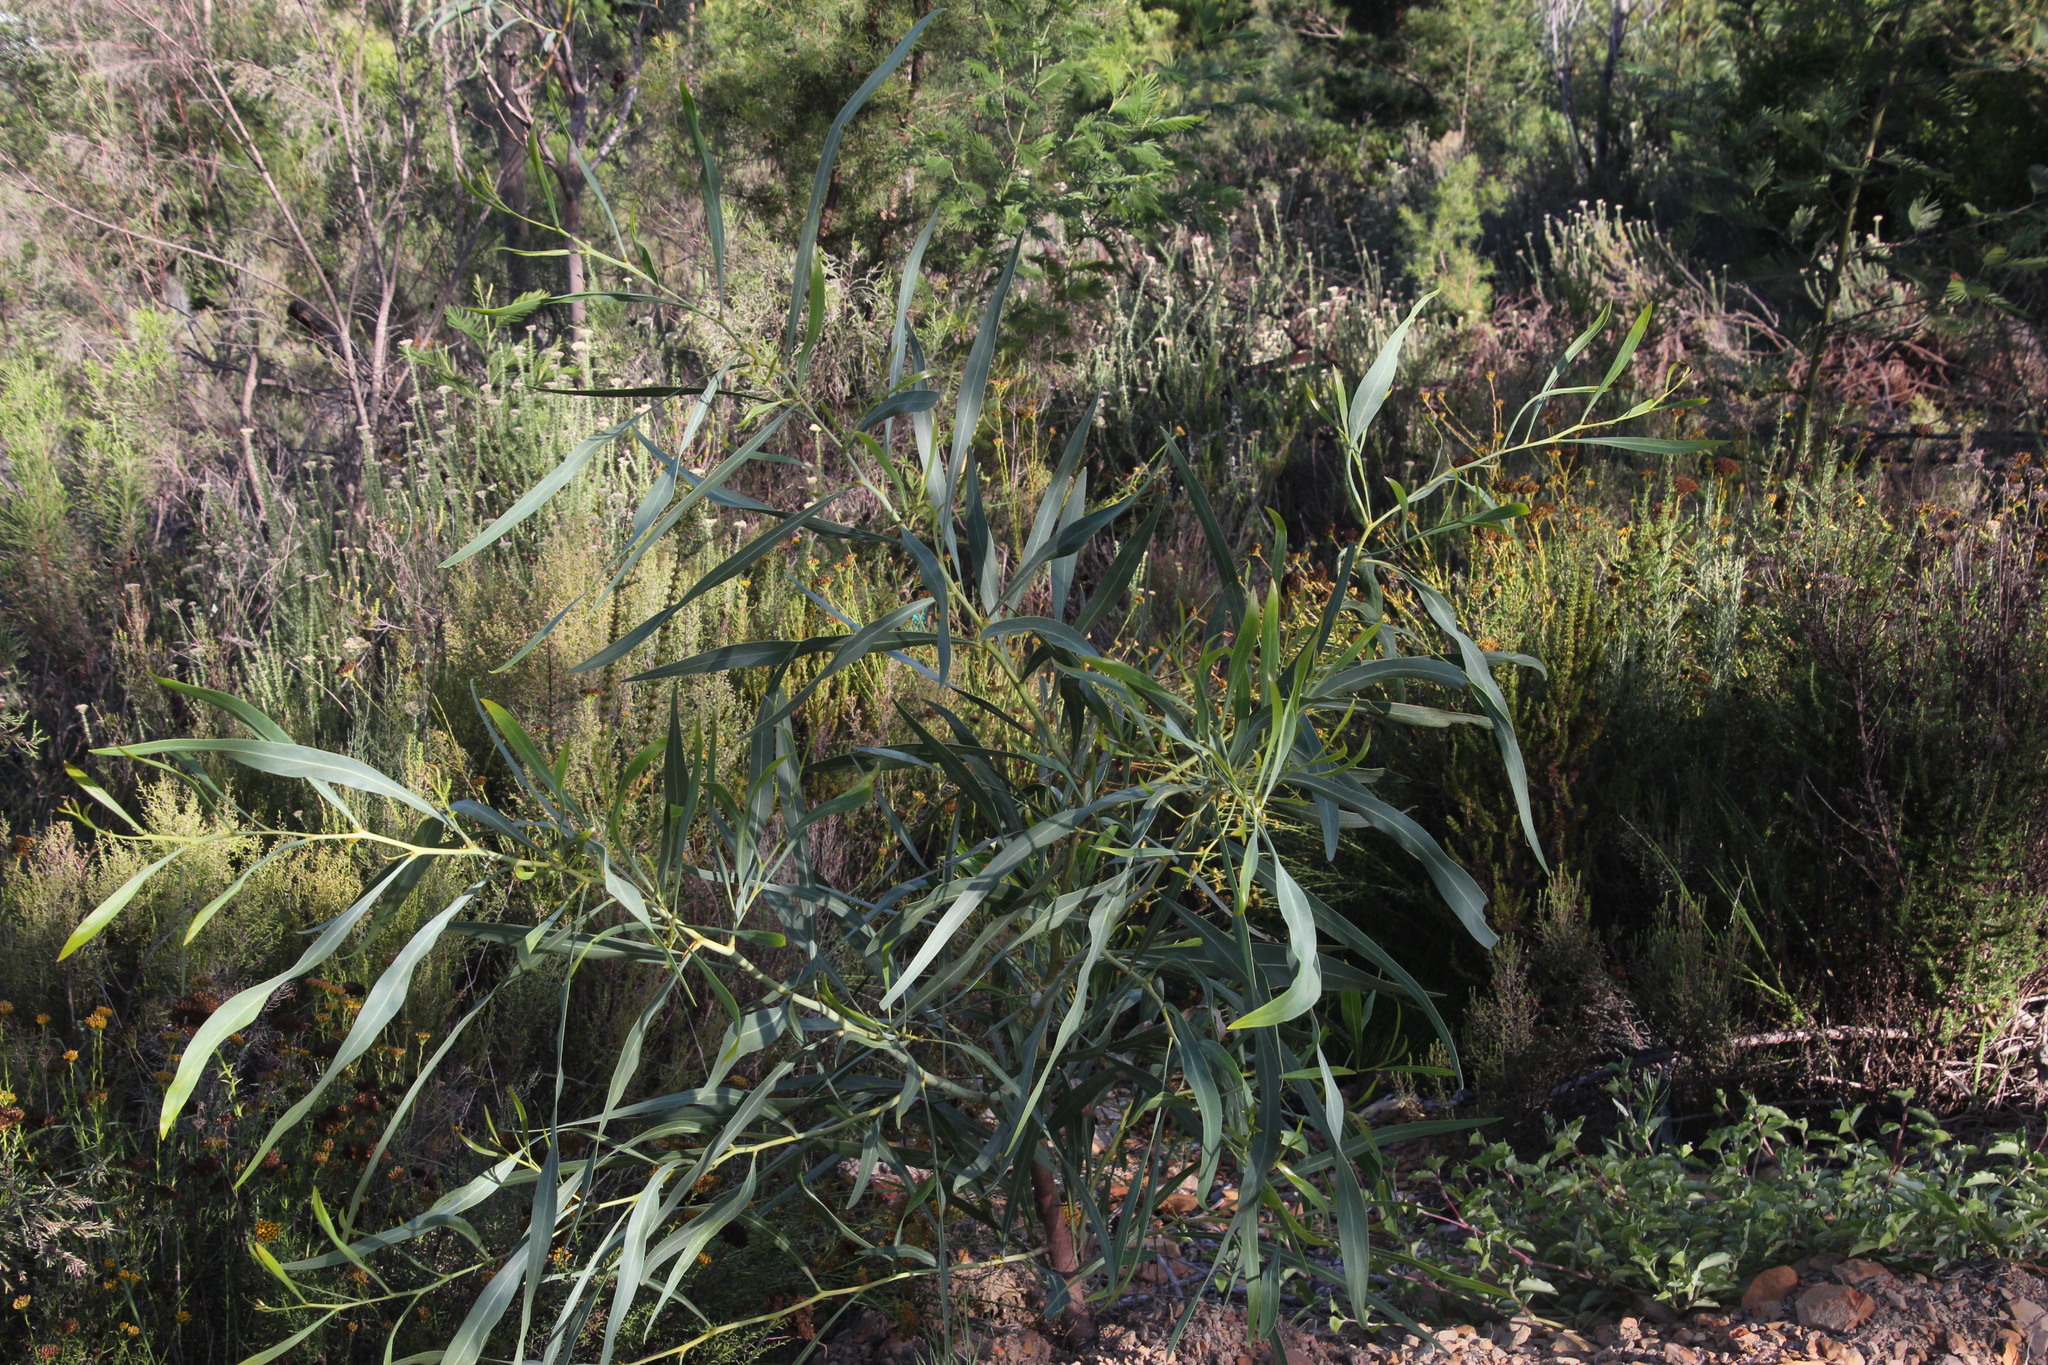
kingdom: Plantae
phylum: Tracheophyta
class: Magnoliopsida
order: Fabales
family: Fabaceae
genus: Acacia
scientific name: Acacia saligna
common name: Orange wattle
